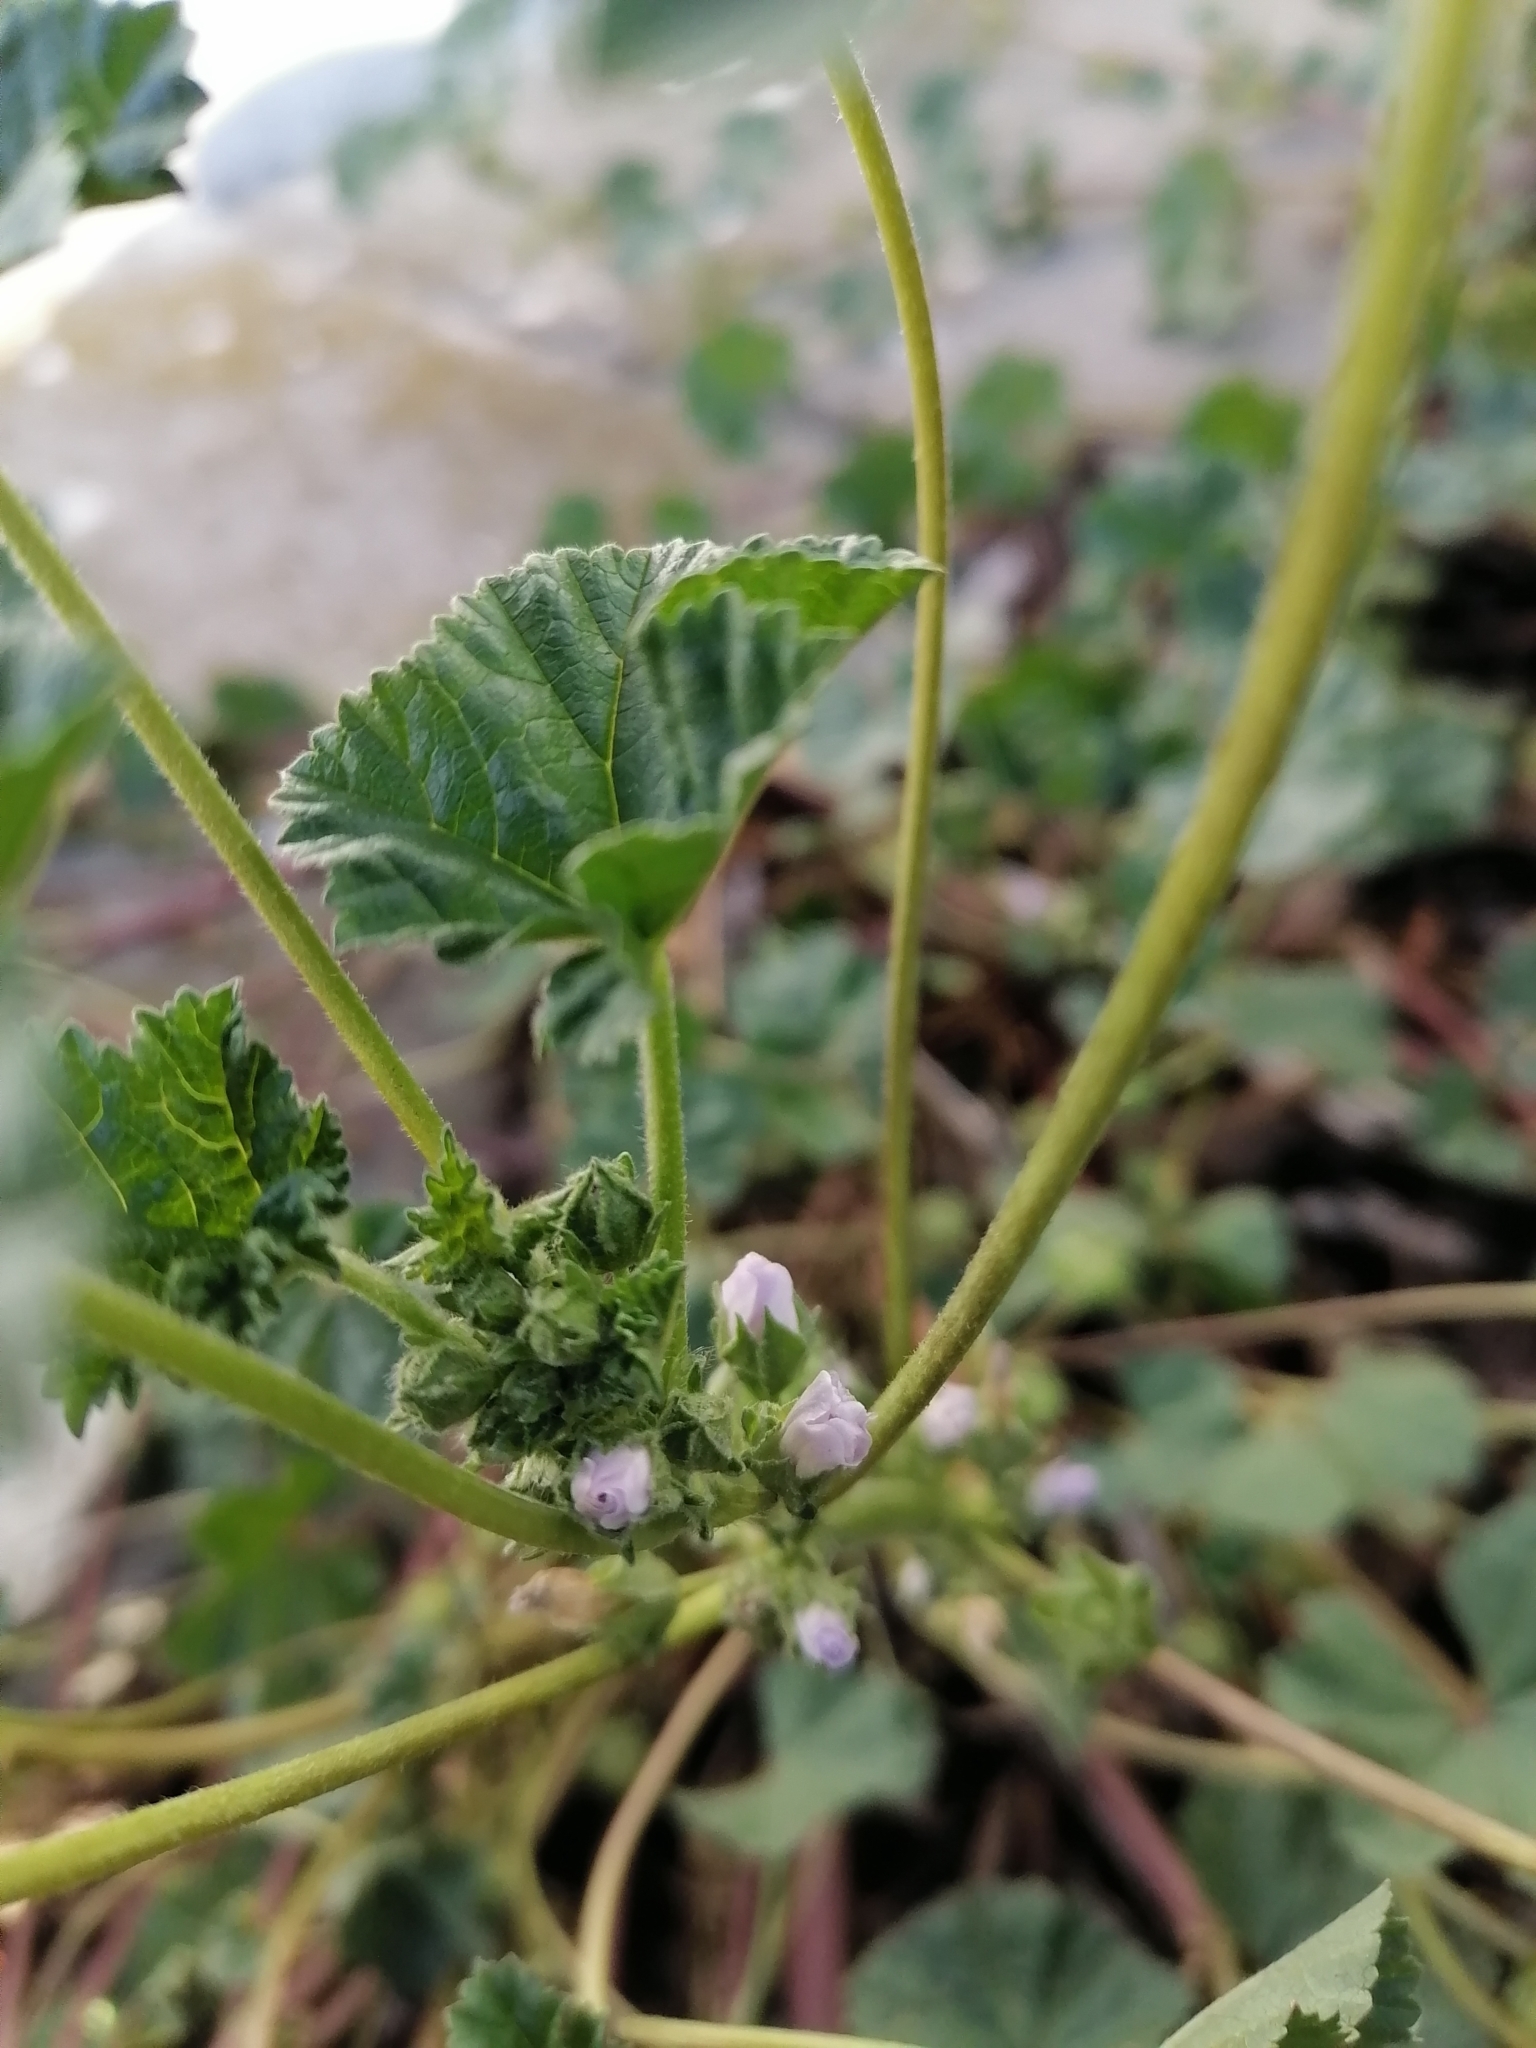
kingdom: Plantae
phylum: Tracheophyta
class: Magnoliopsida
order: Malvales
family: Malvaceae
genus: Malva
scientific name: Malva neglecta
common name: Common mallow
